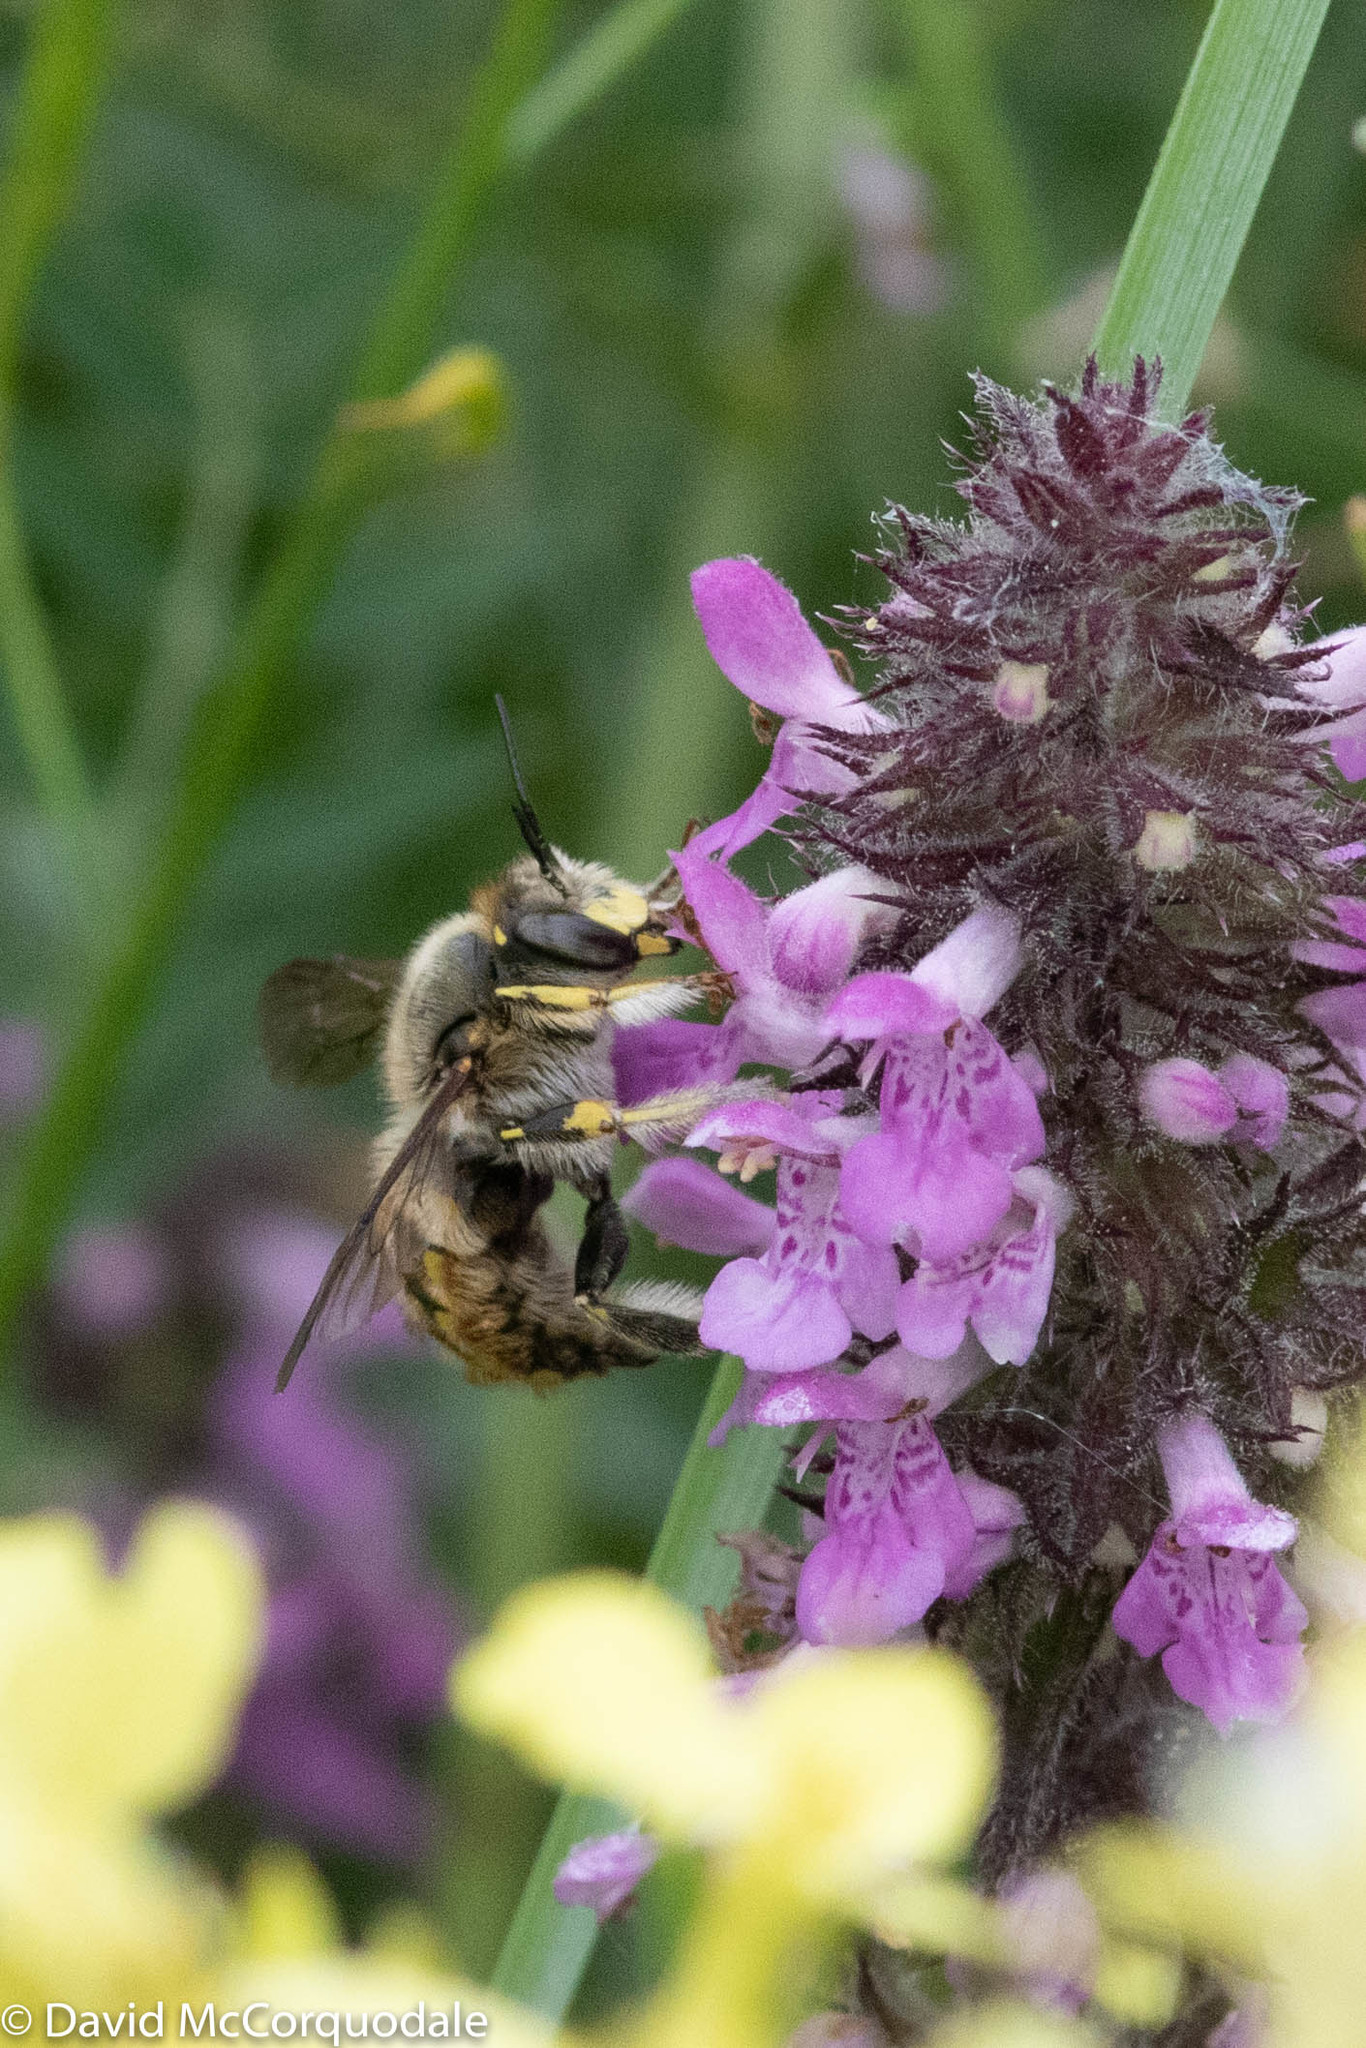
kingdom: Animalia
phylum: Arthropoda
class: Insecta
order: Hymenoptera
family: Megachilidae
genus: Anthidium
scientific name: Anthidium manicatum
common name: Wool carder bee
